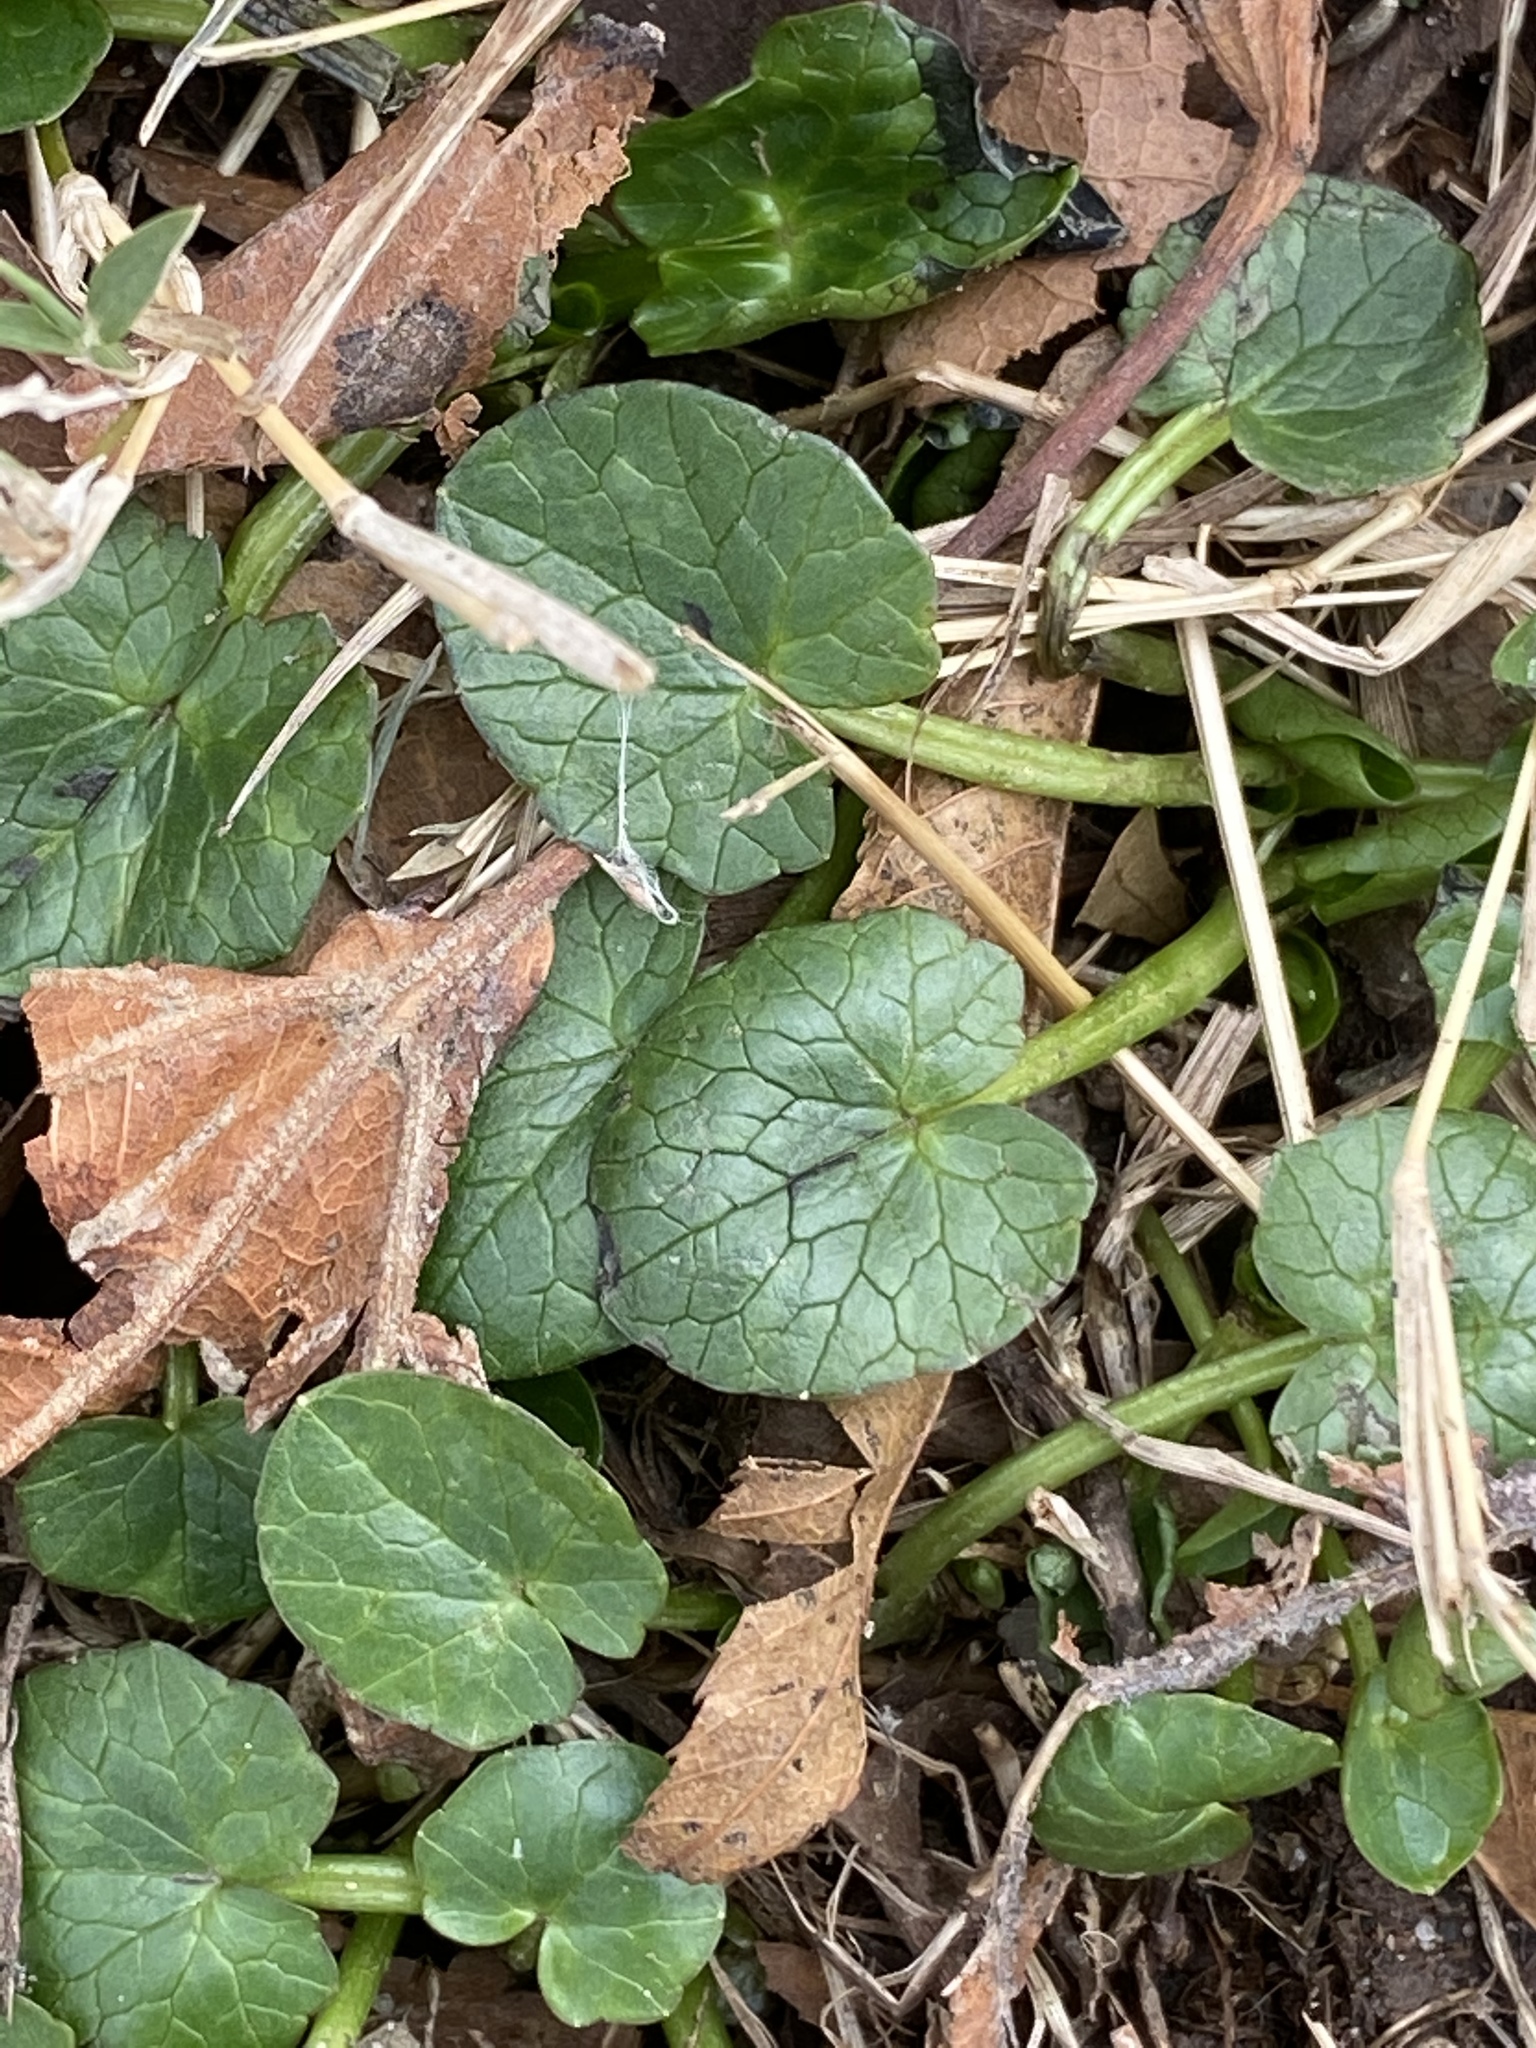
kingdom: Plantae
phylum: Tracheophyta
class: Magnoliopsida
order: Ranunculales
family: Ranunculaceae
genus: Ficaria
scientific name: Ficaria verna
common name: Lesser celandine
